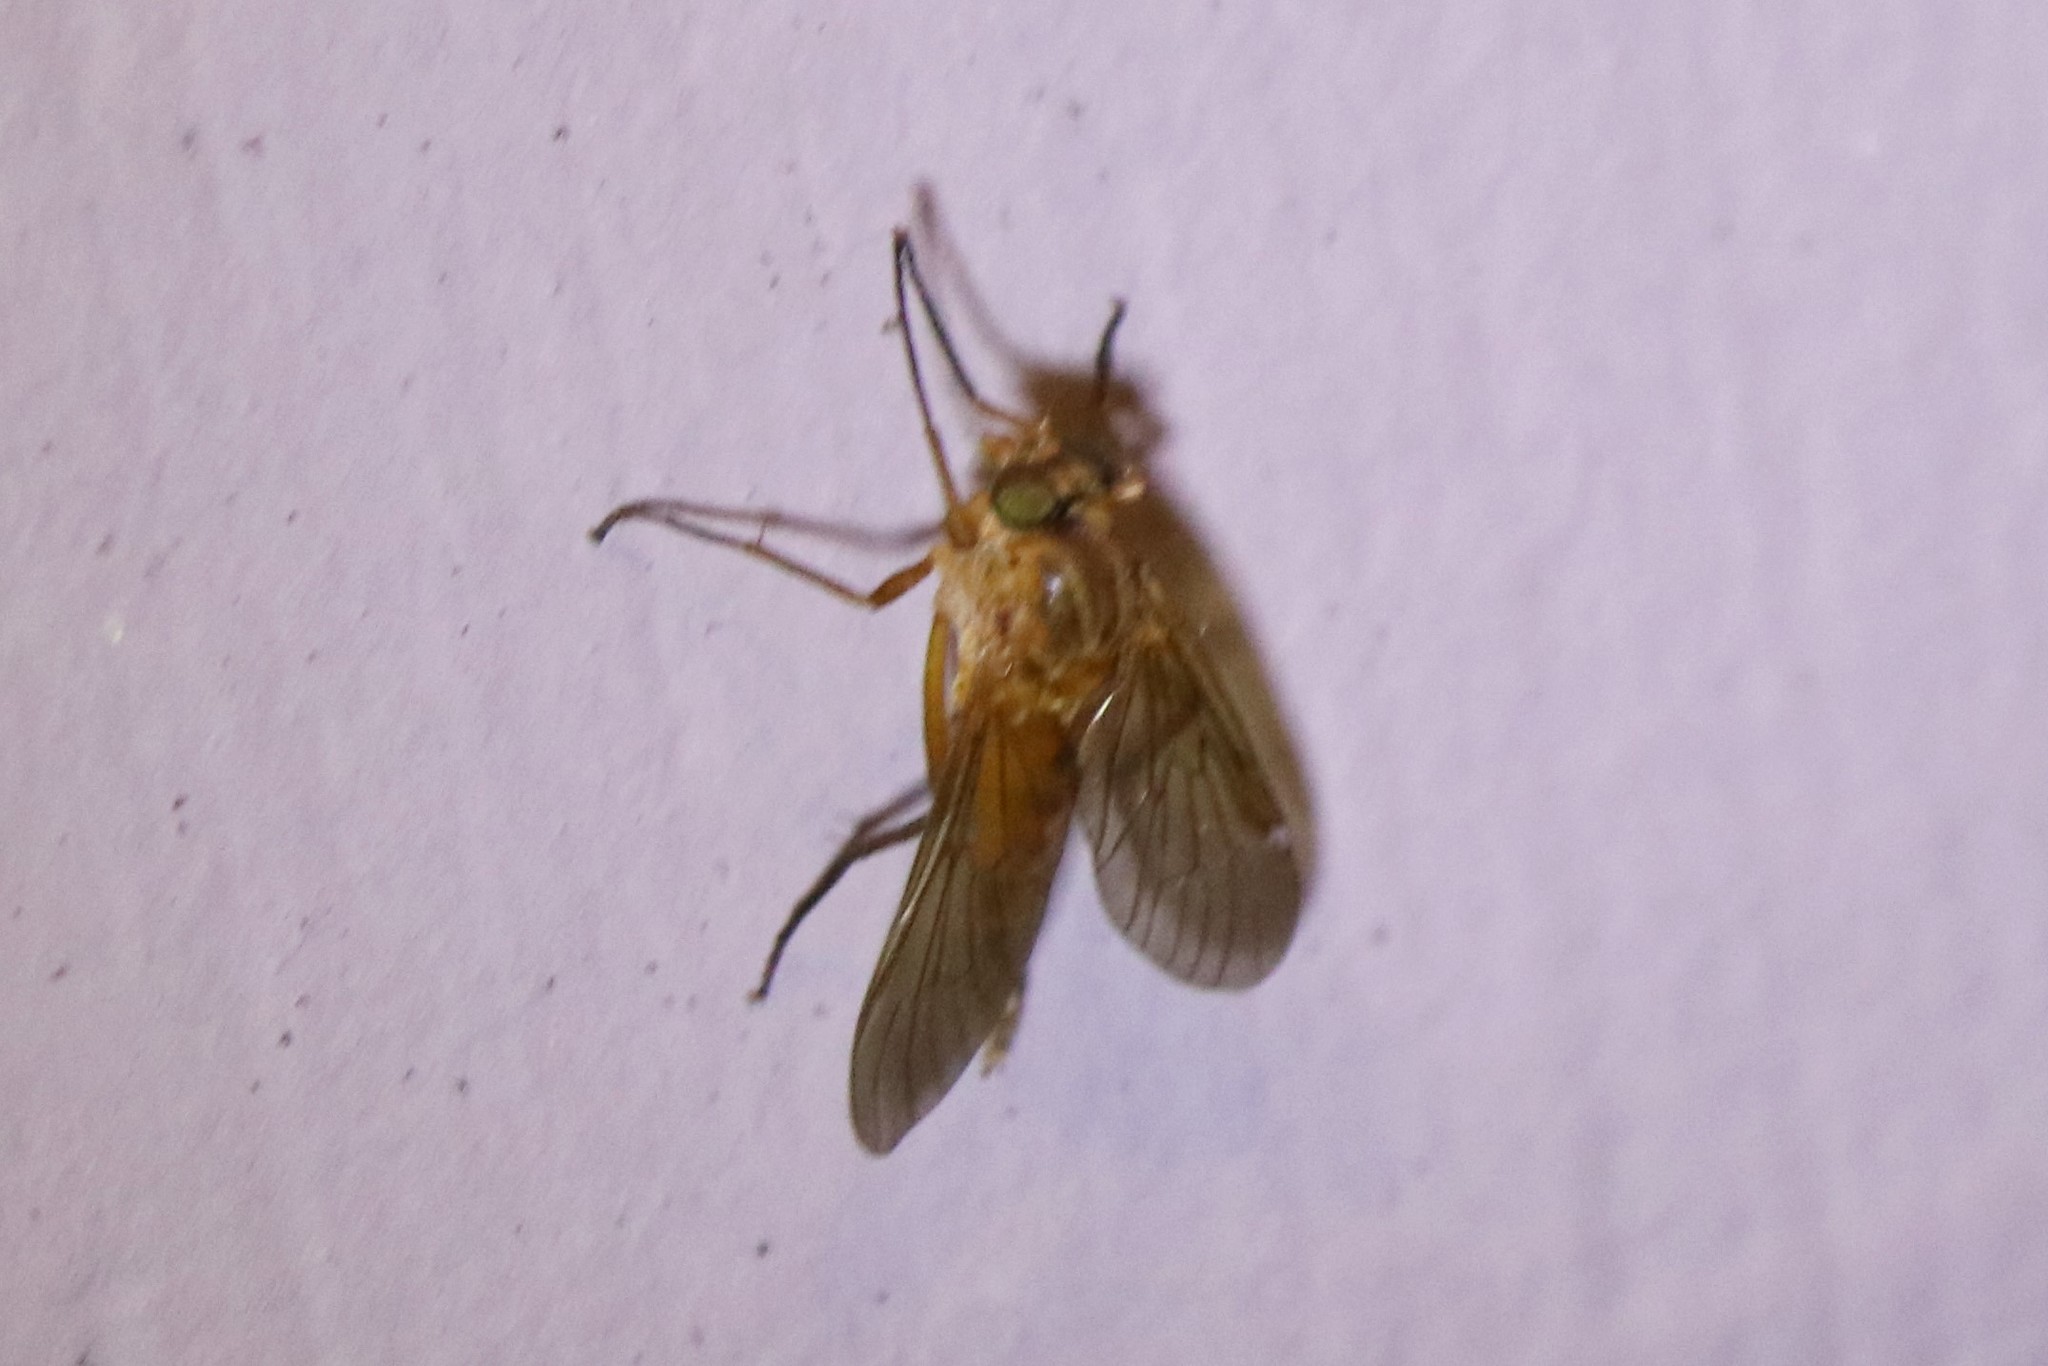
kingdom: Animalia
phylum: Arthropoda
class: Insecta
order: Diptera
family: Rhagionidae
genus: Rhagio
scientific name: Rhagio tringaria
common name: Marsh snipefly
